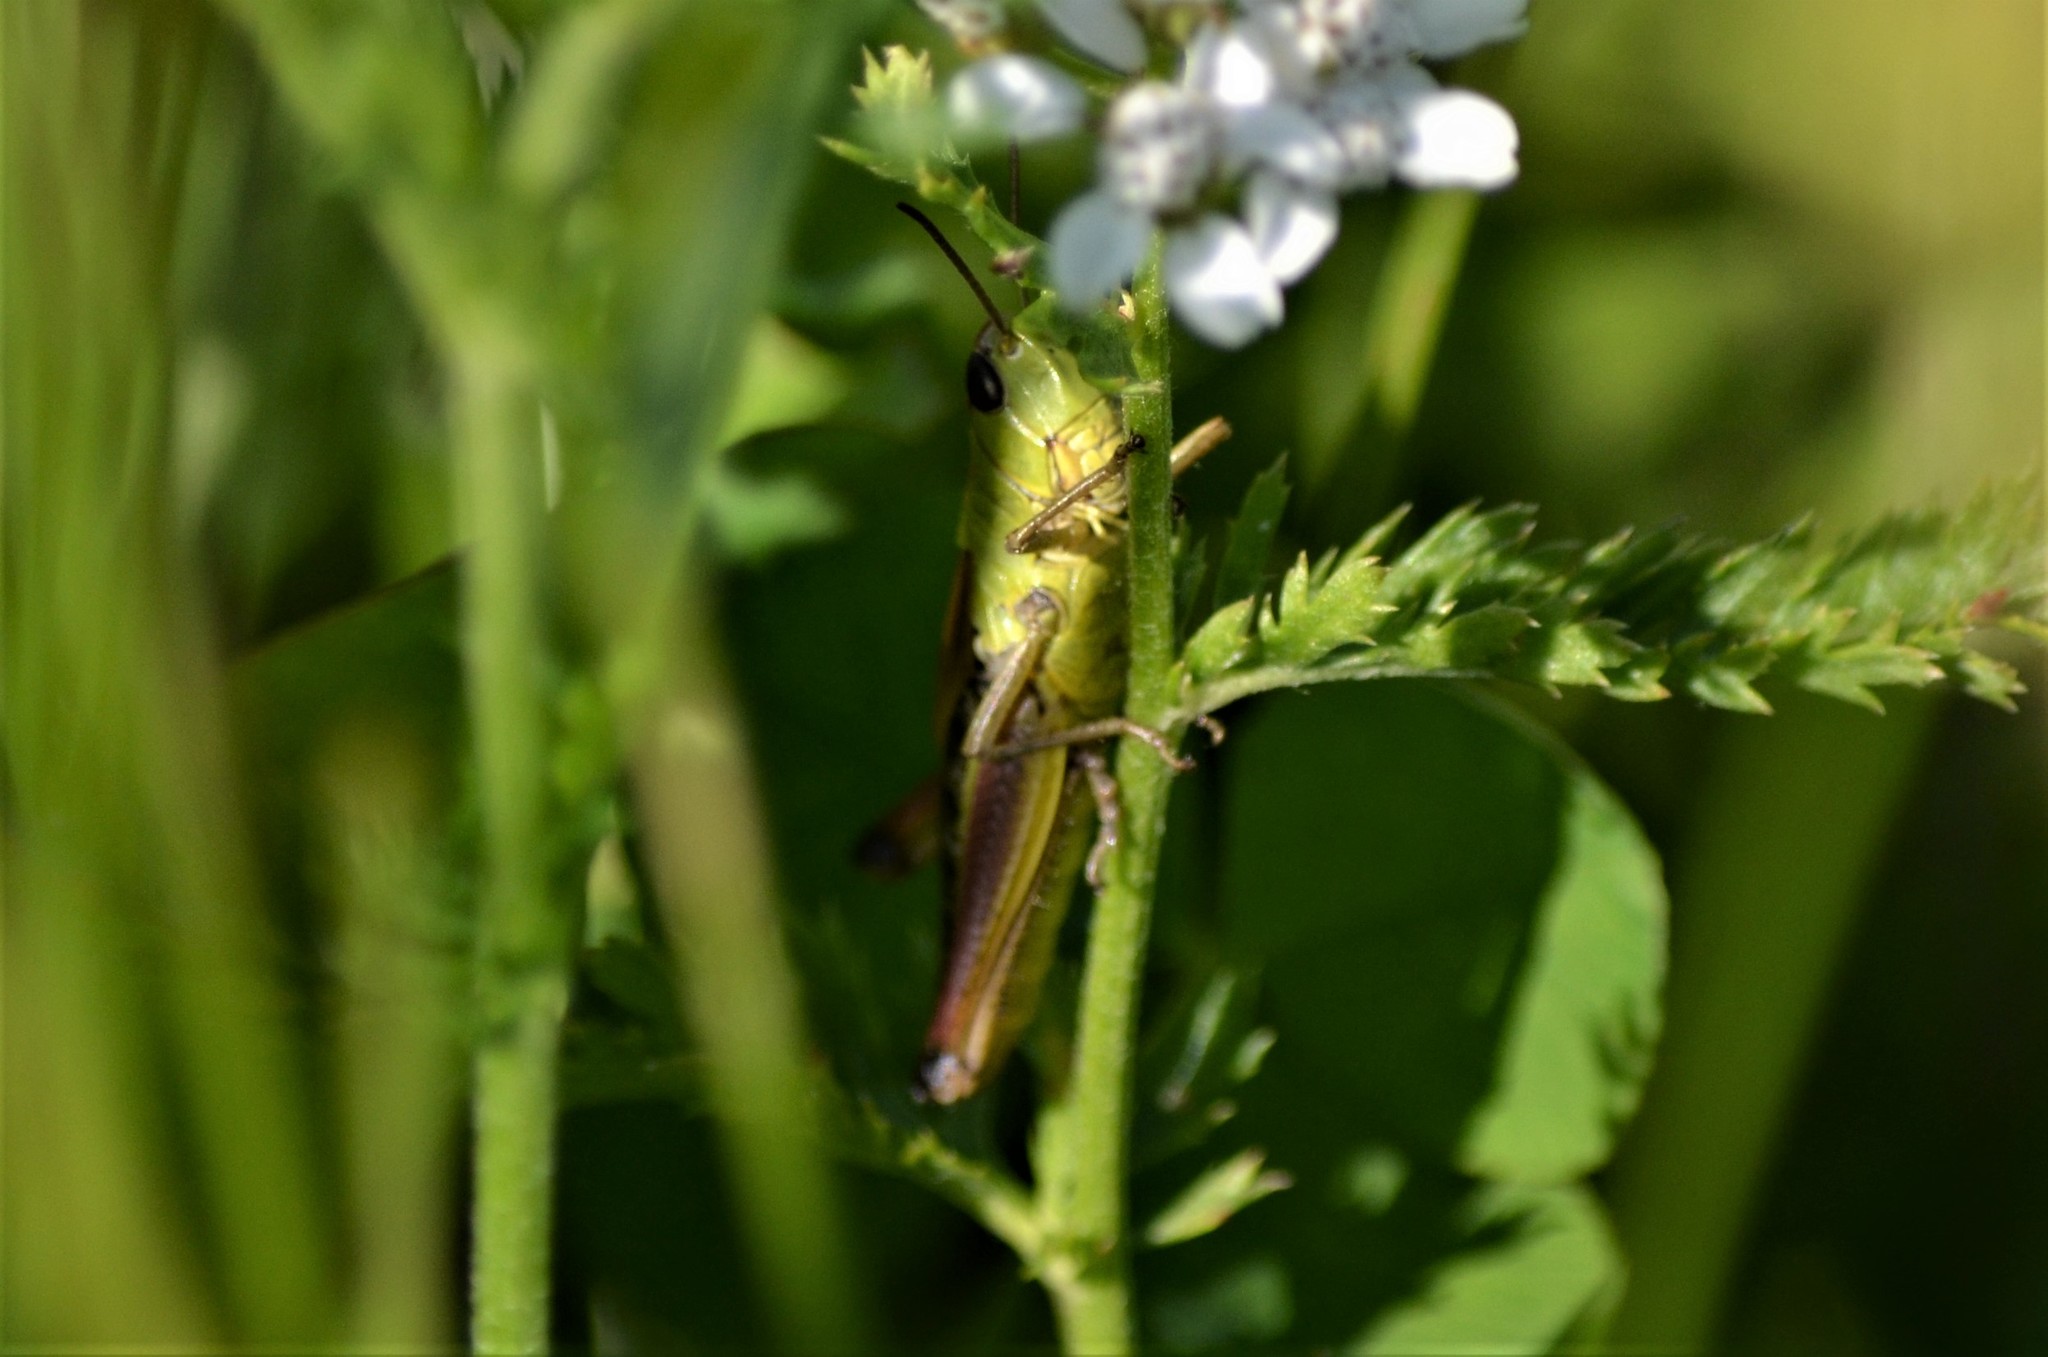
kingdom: Animalia
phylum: Arthropoda
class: Insecta
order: Orthoptera
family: Acrididae
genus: Pseudochorthippus
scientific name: Pseudochorthippus parallelus
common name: Meadow grasshopper
